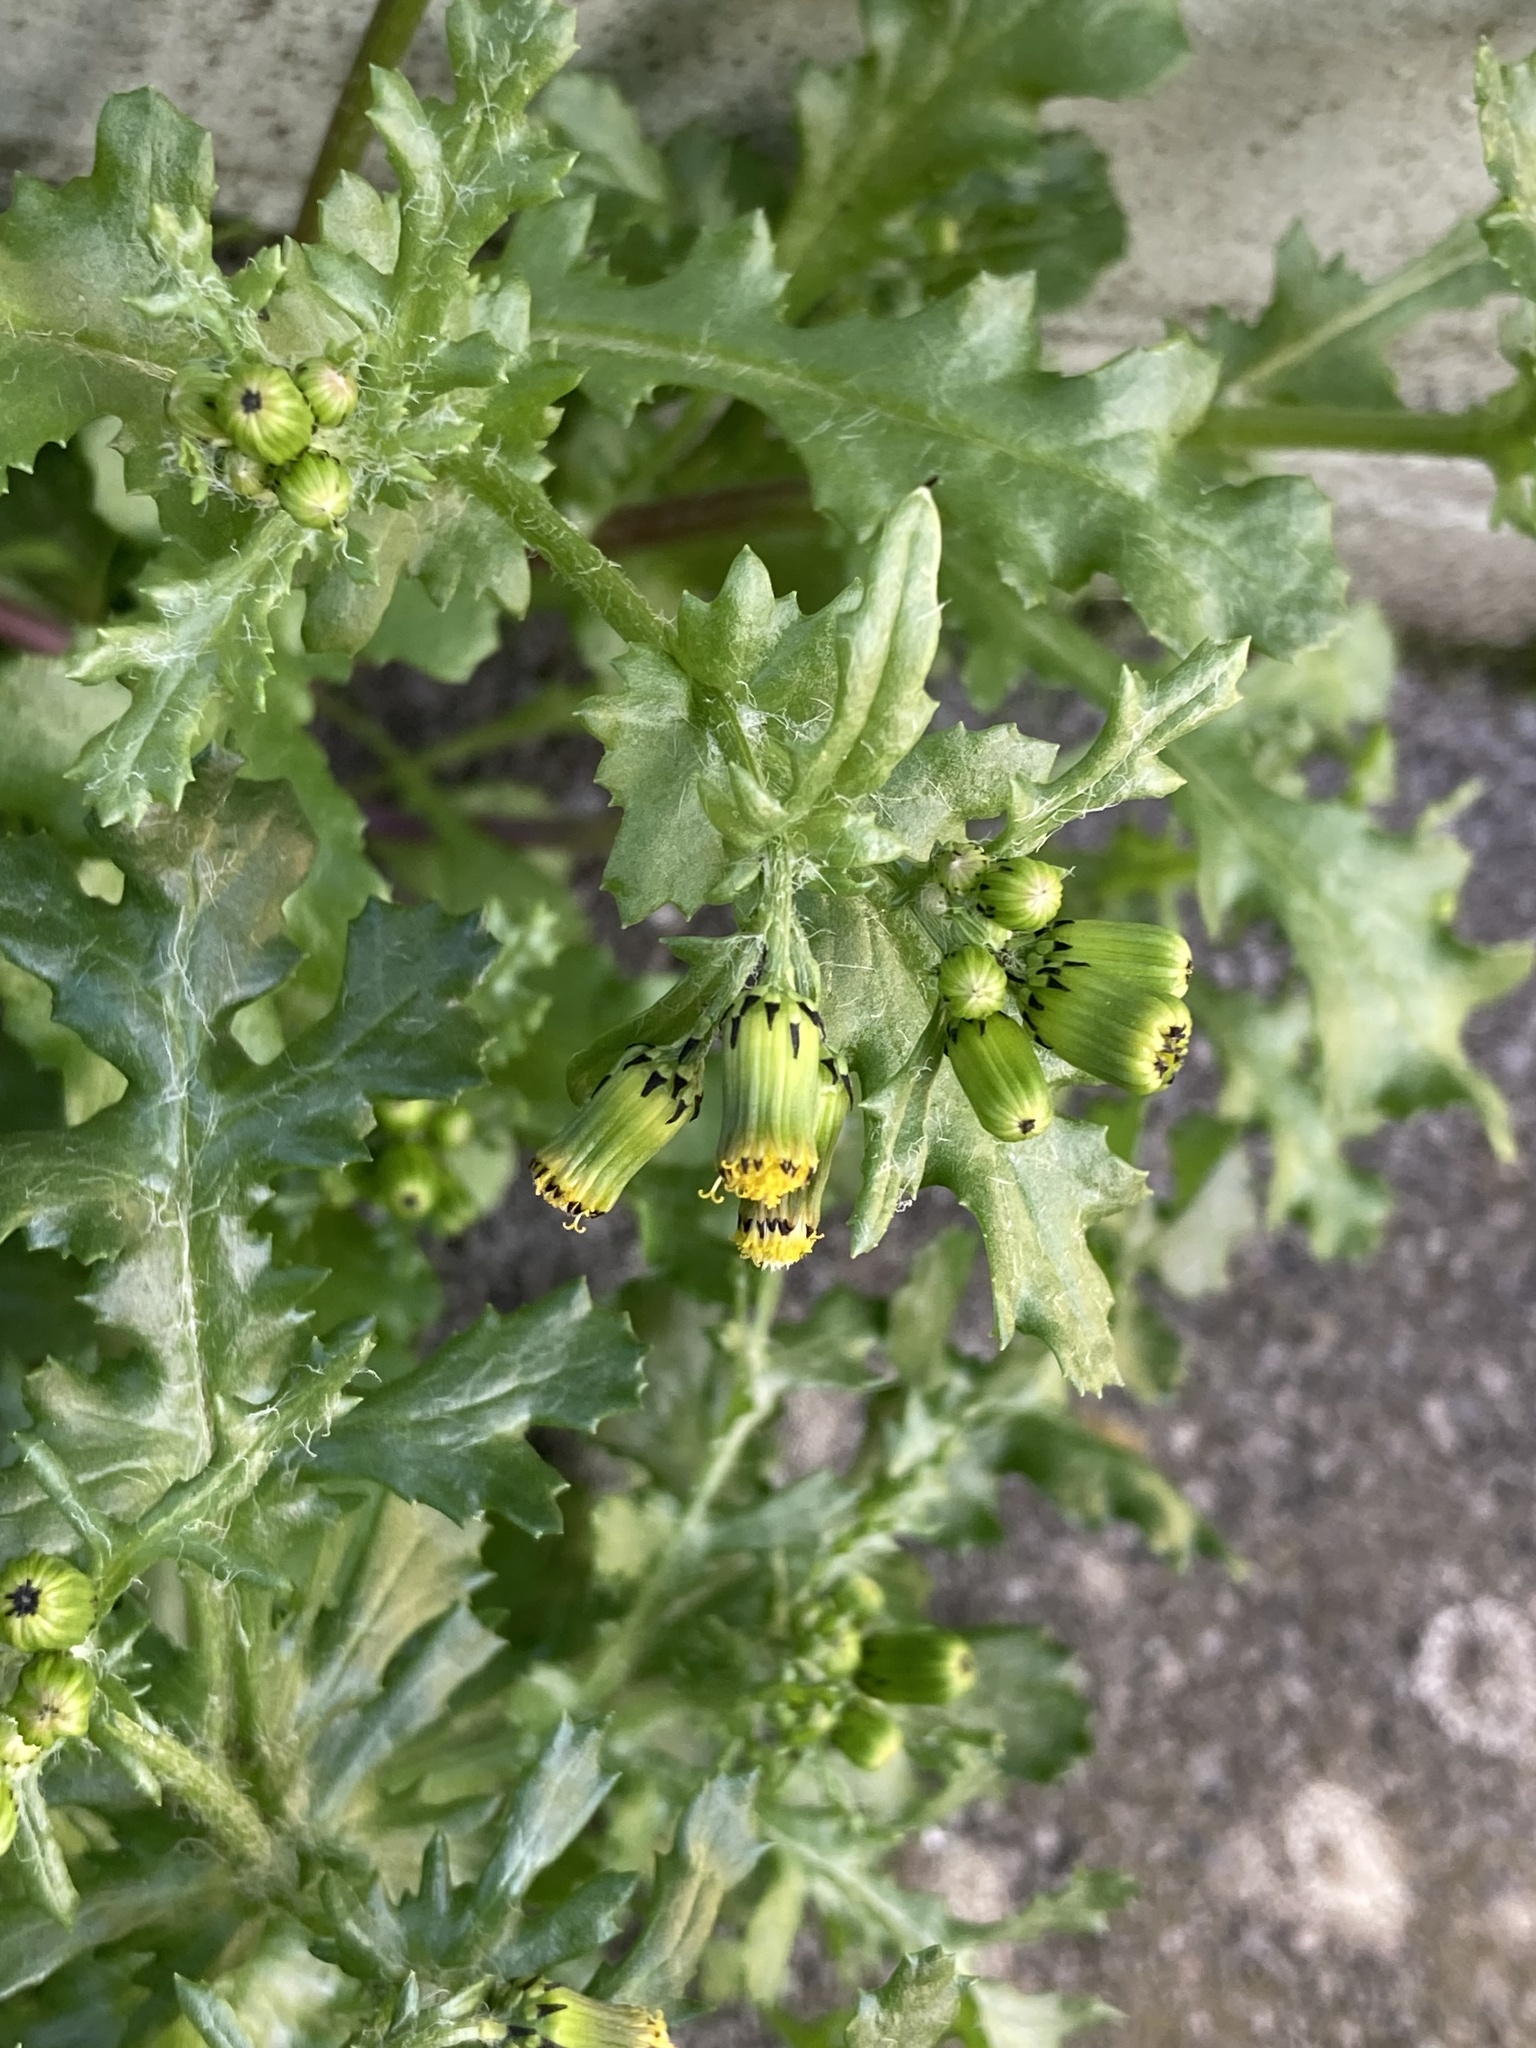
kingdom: Plantae
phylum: Tracheophyta
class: Magnoliopsida
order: Asterales
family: Asteraceae
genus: Senecio
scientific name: Senecio vulgaris
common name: Old-man-in-the-spring
